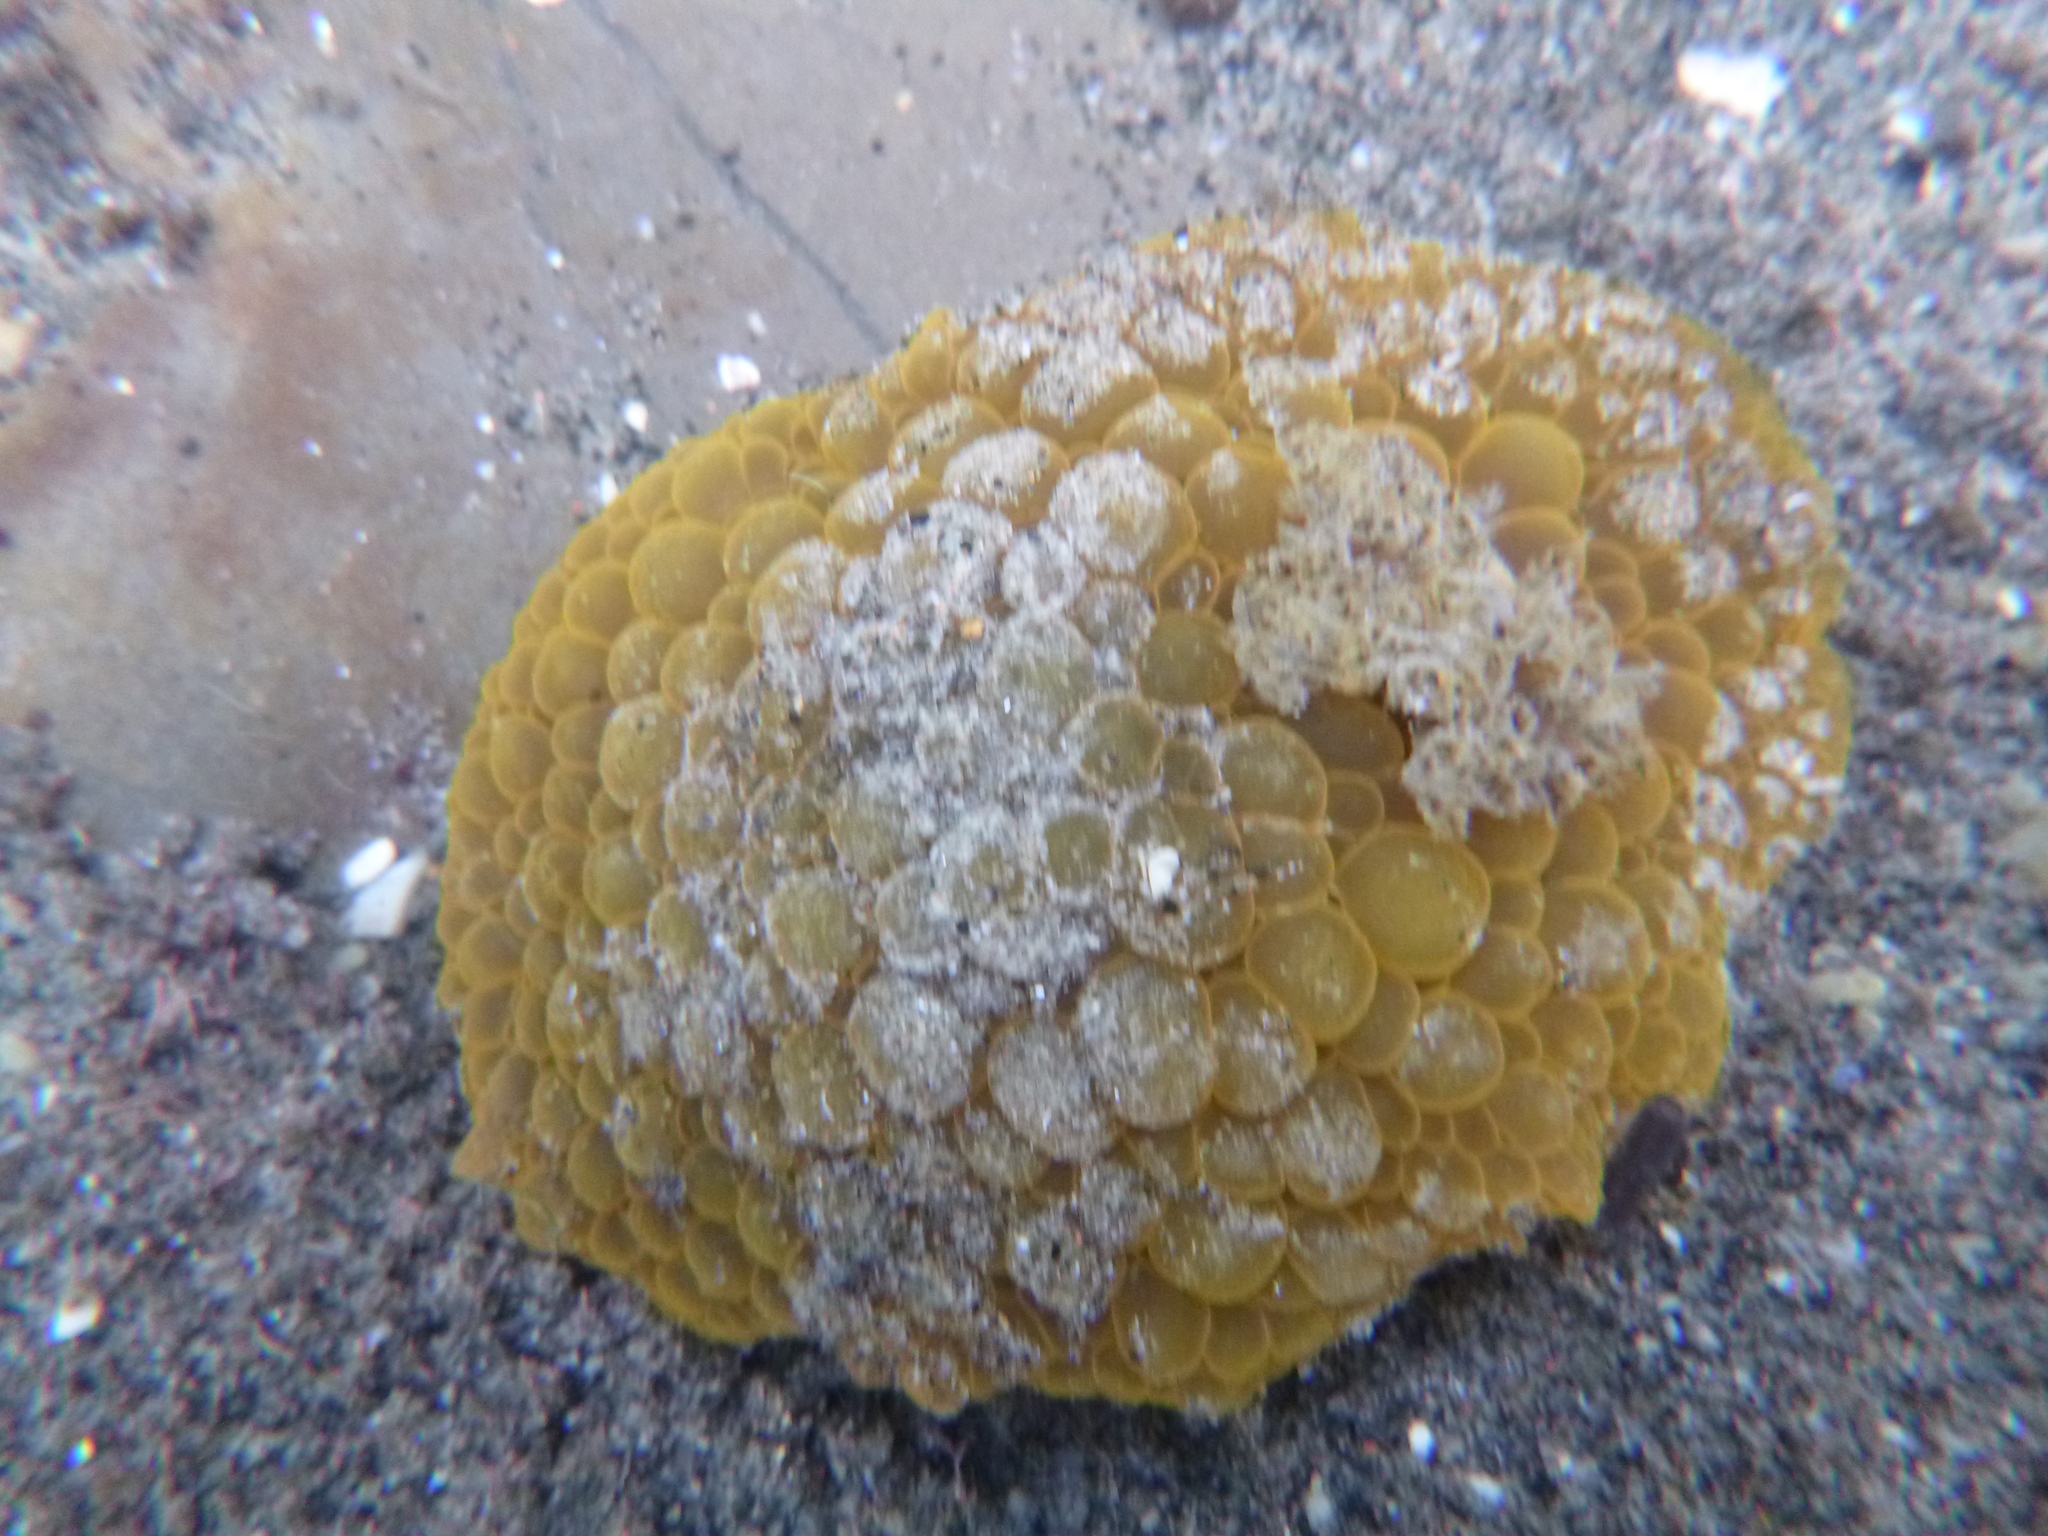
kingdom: Animalia
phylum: Mollusca
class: Gastropoda
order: Nudibranchia
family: Dorididae
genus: Doris
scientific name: Doris wellingtonensis
